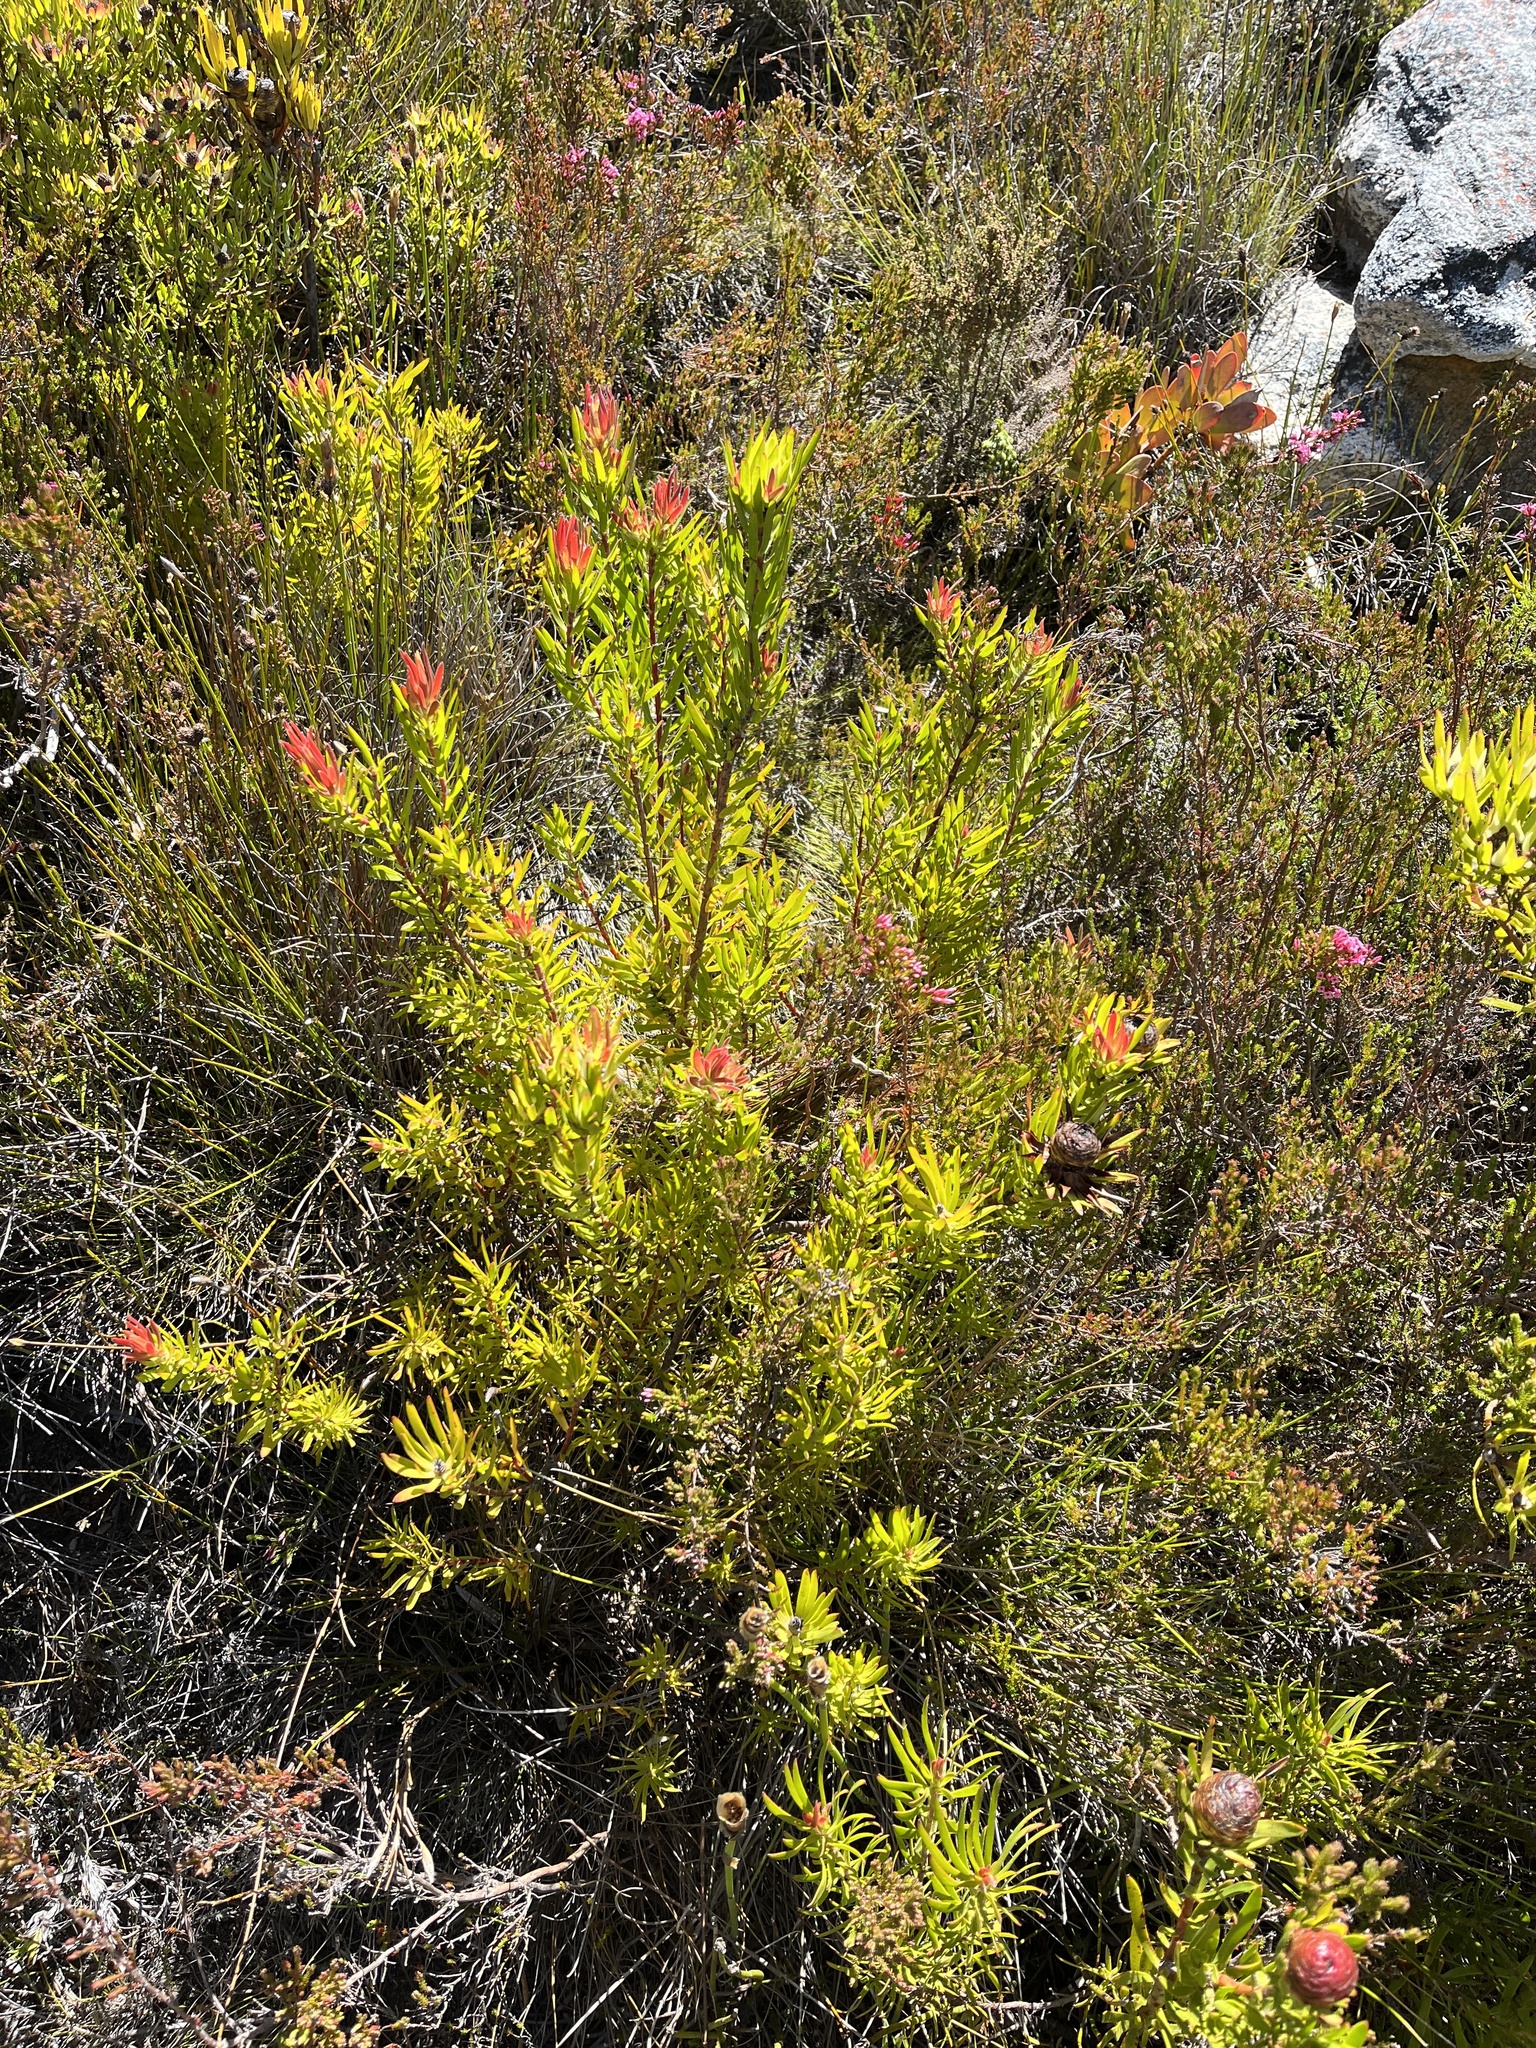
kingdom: Plantae
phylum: Tracheophyta
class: Magnoliopsida
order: Proteales
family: Proteaceae
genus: Leucadendron
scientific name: Leucadendron spissifolium
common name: Spear-leaf conebush
